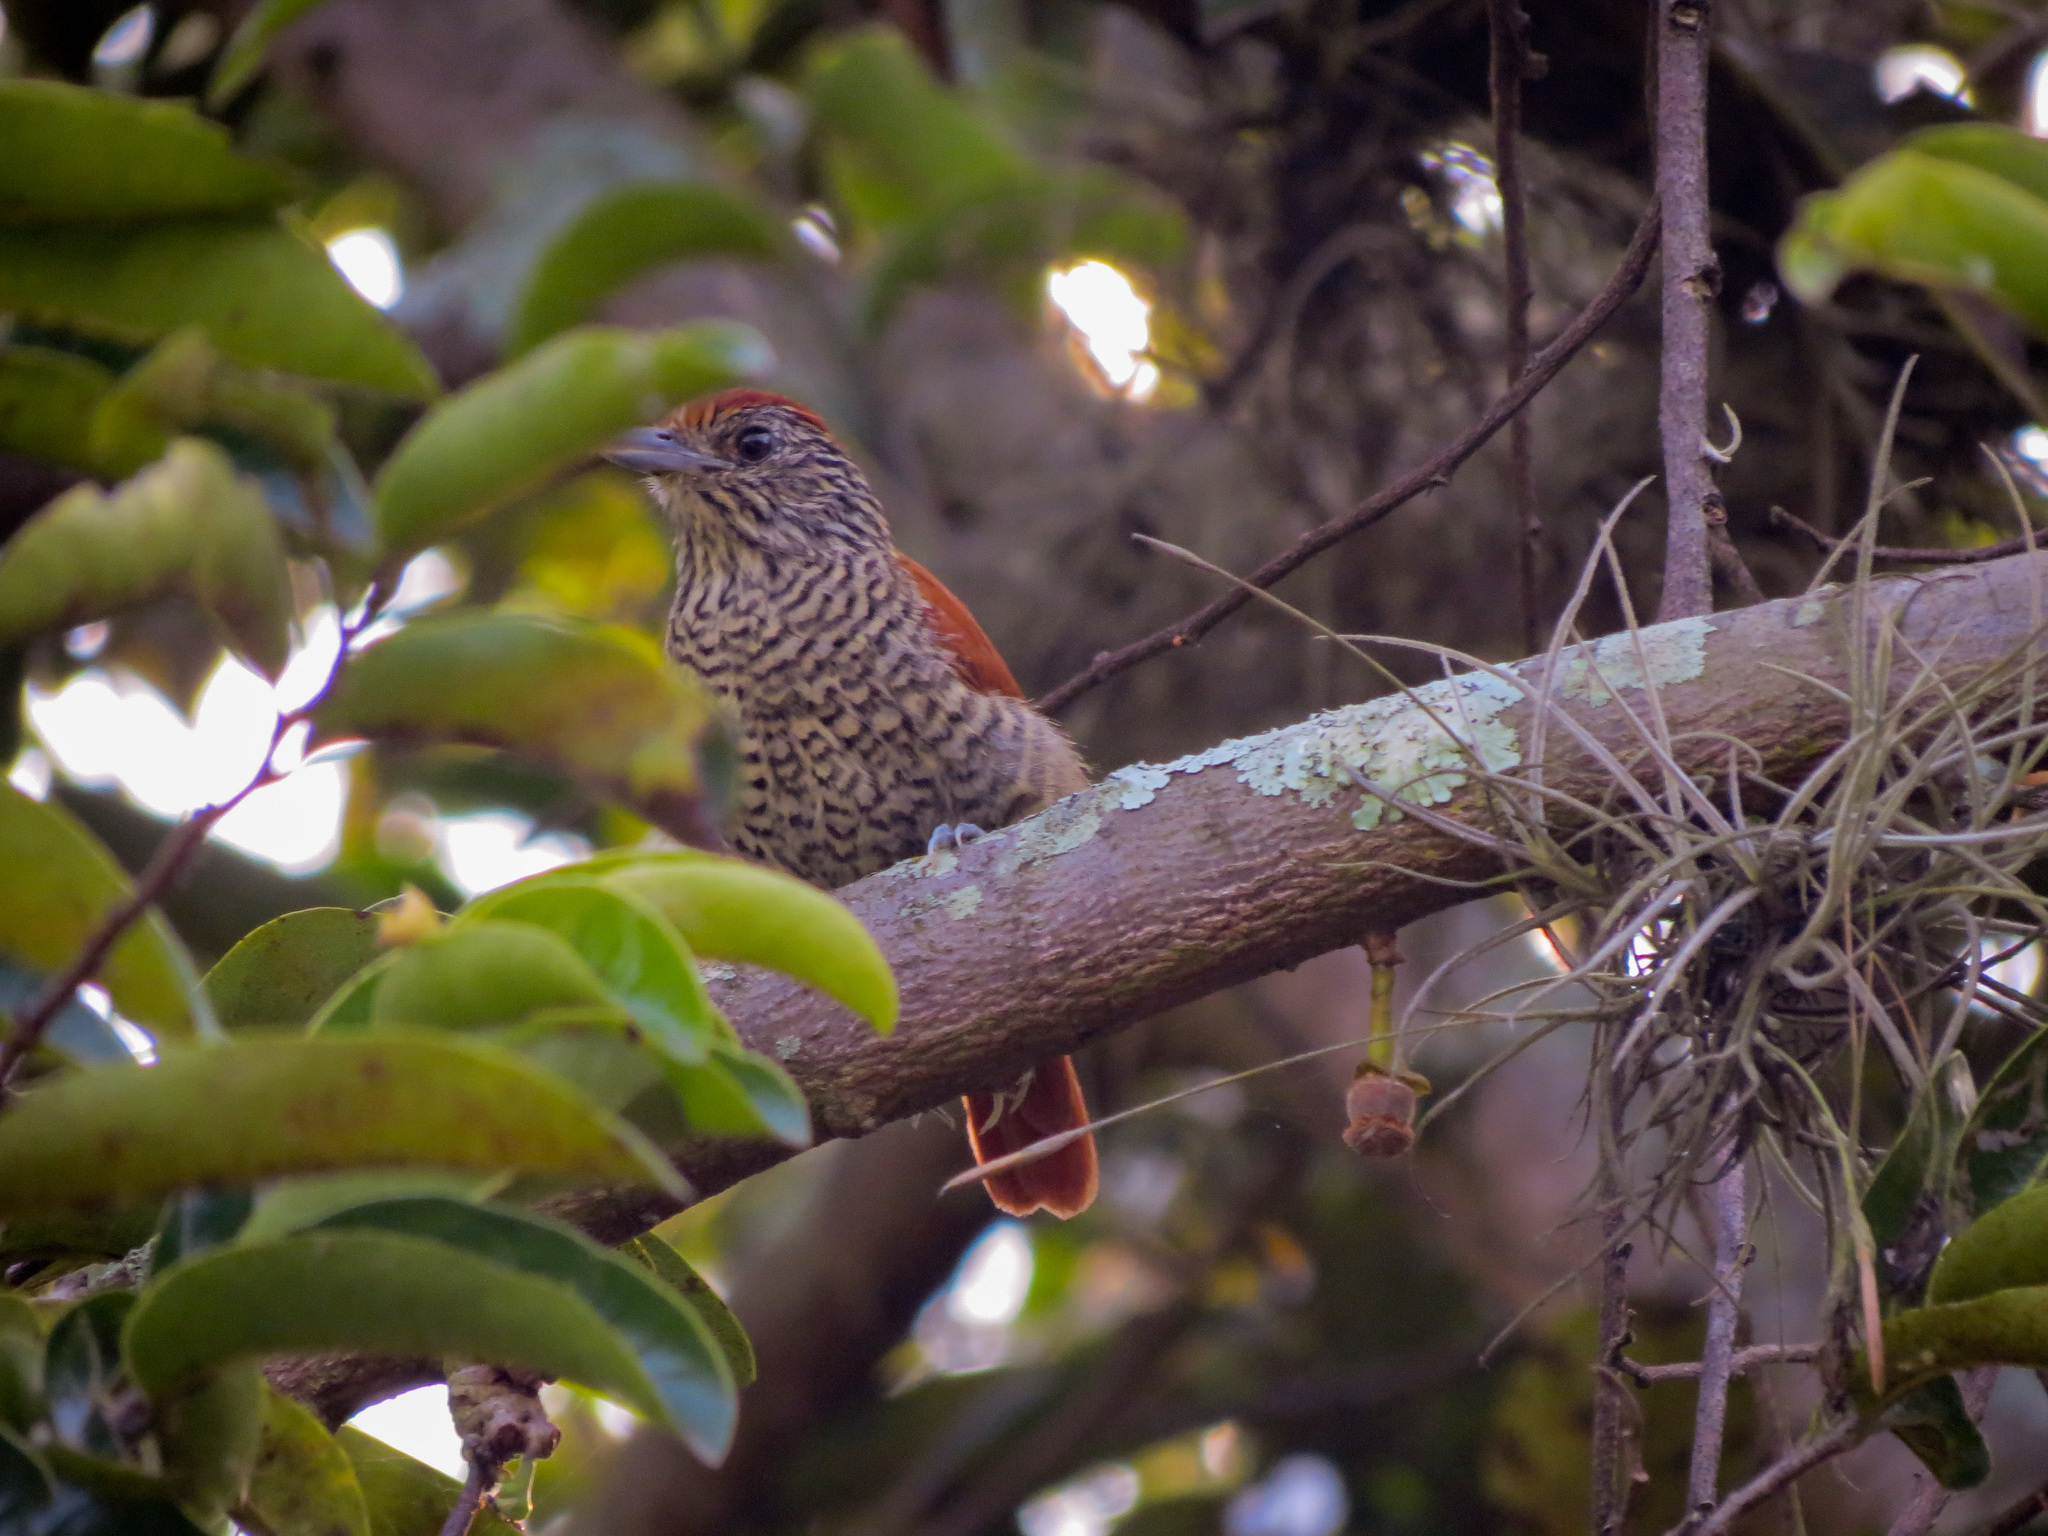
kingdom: Animalia
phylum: Chordata
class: Aves
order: Passeriformes
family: Thamnophilidae
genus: Thamnophilus
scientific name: Thamnophilus multistriatus
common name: Bar-crested antshrike
